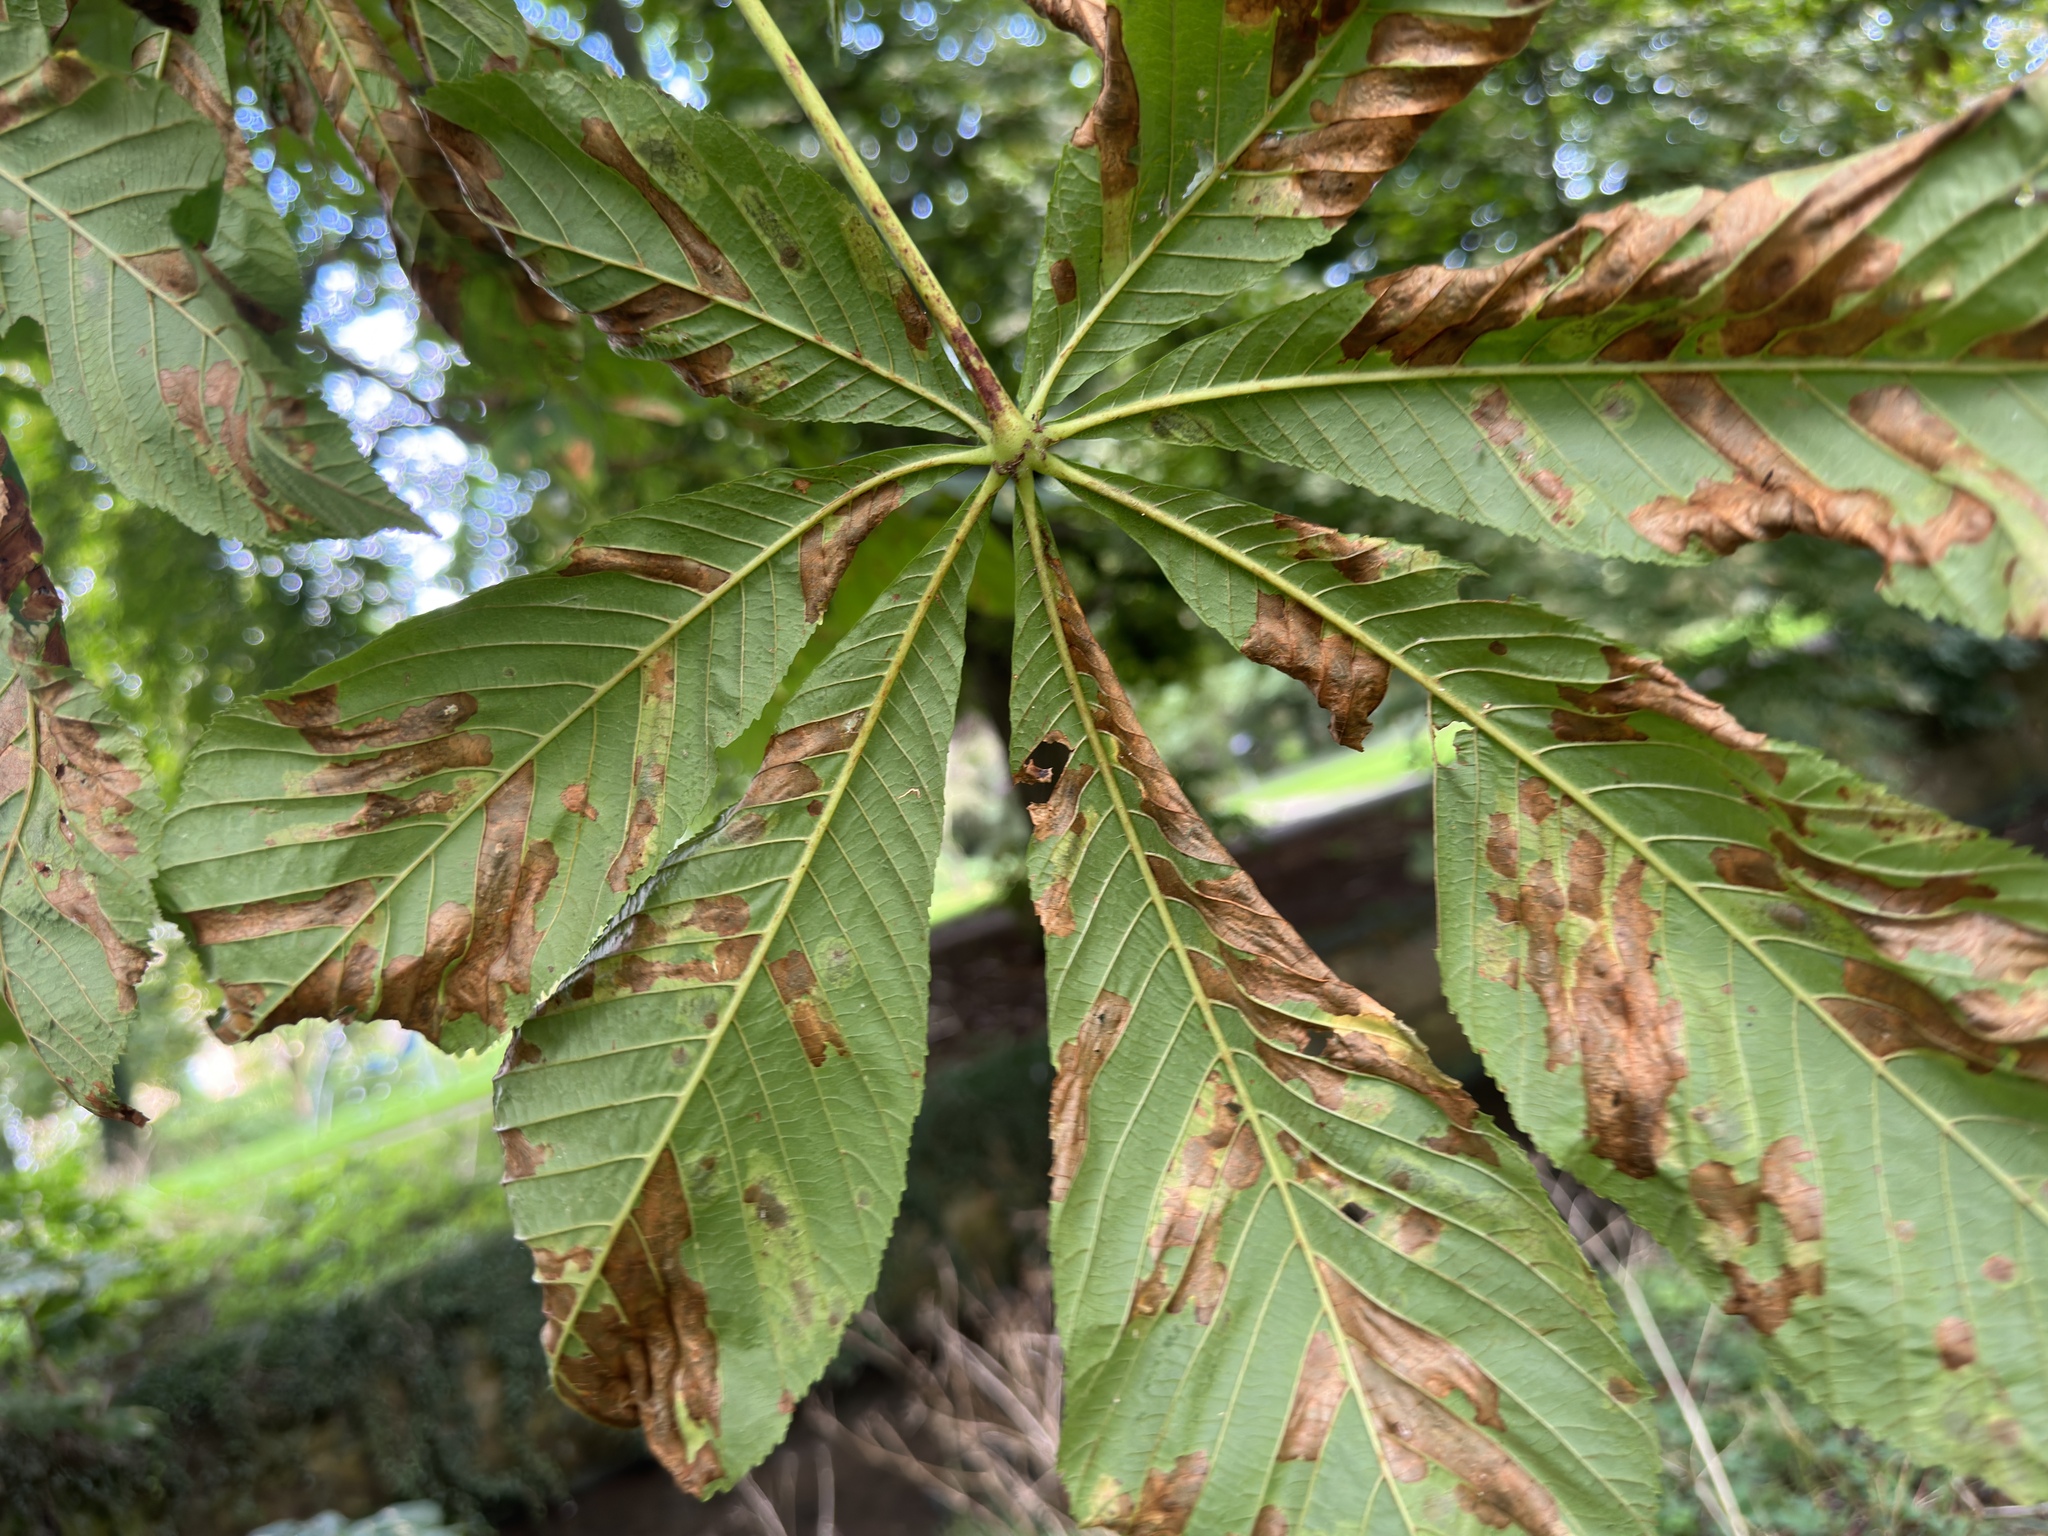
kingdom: Animalia
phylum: Arthropoda
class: Insecta
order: Lepidoptera
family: Gracillariidae
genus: Cameraria
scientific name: Cameraria ohridella
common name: Horse-chestnut leaf-miner
